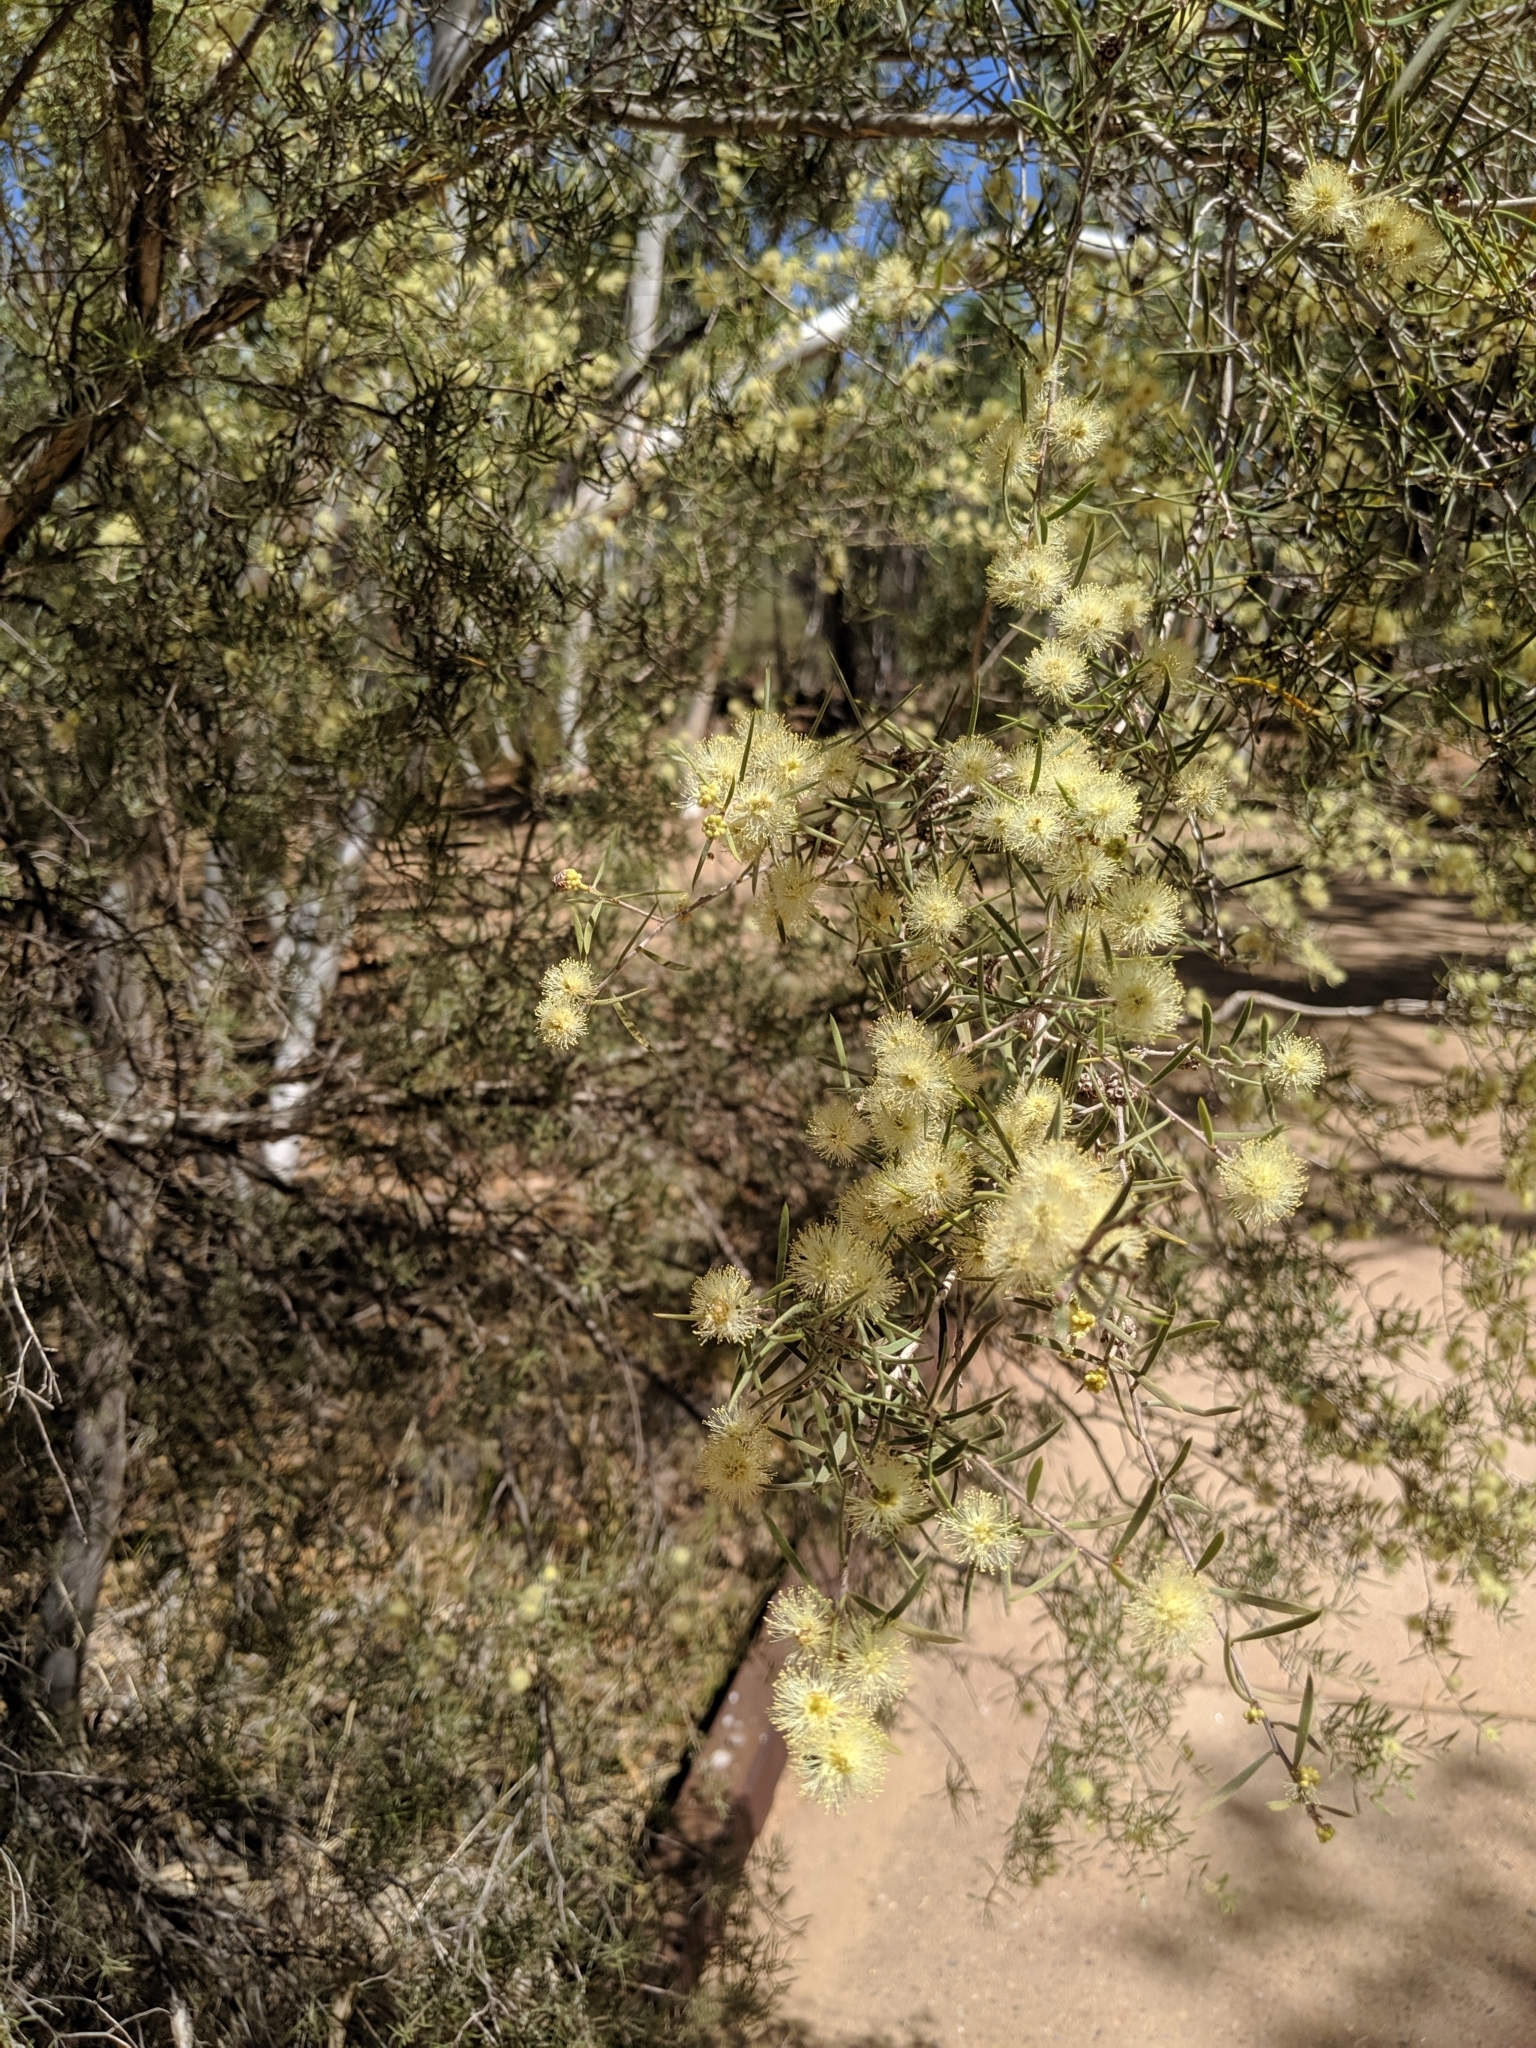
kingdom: Plantae
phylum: Tracheophyta
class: Magnoliopsida
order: Myrtales
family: Myrtaceae
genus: Melaleuca
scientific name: Melaleuca glomerata
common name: Desert honey-myrtle
